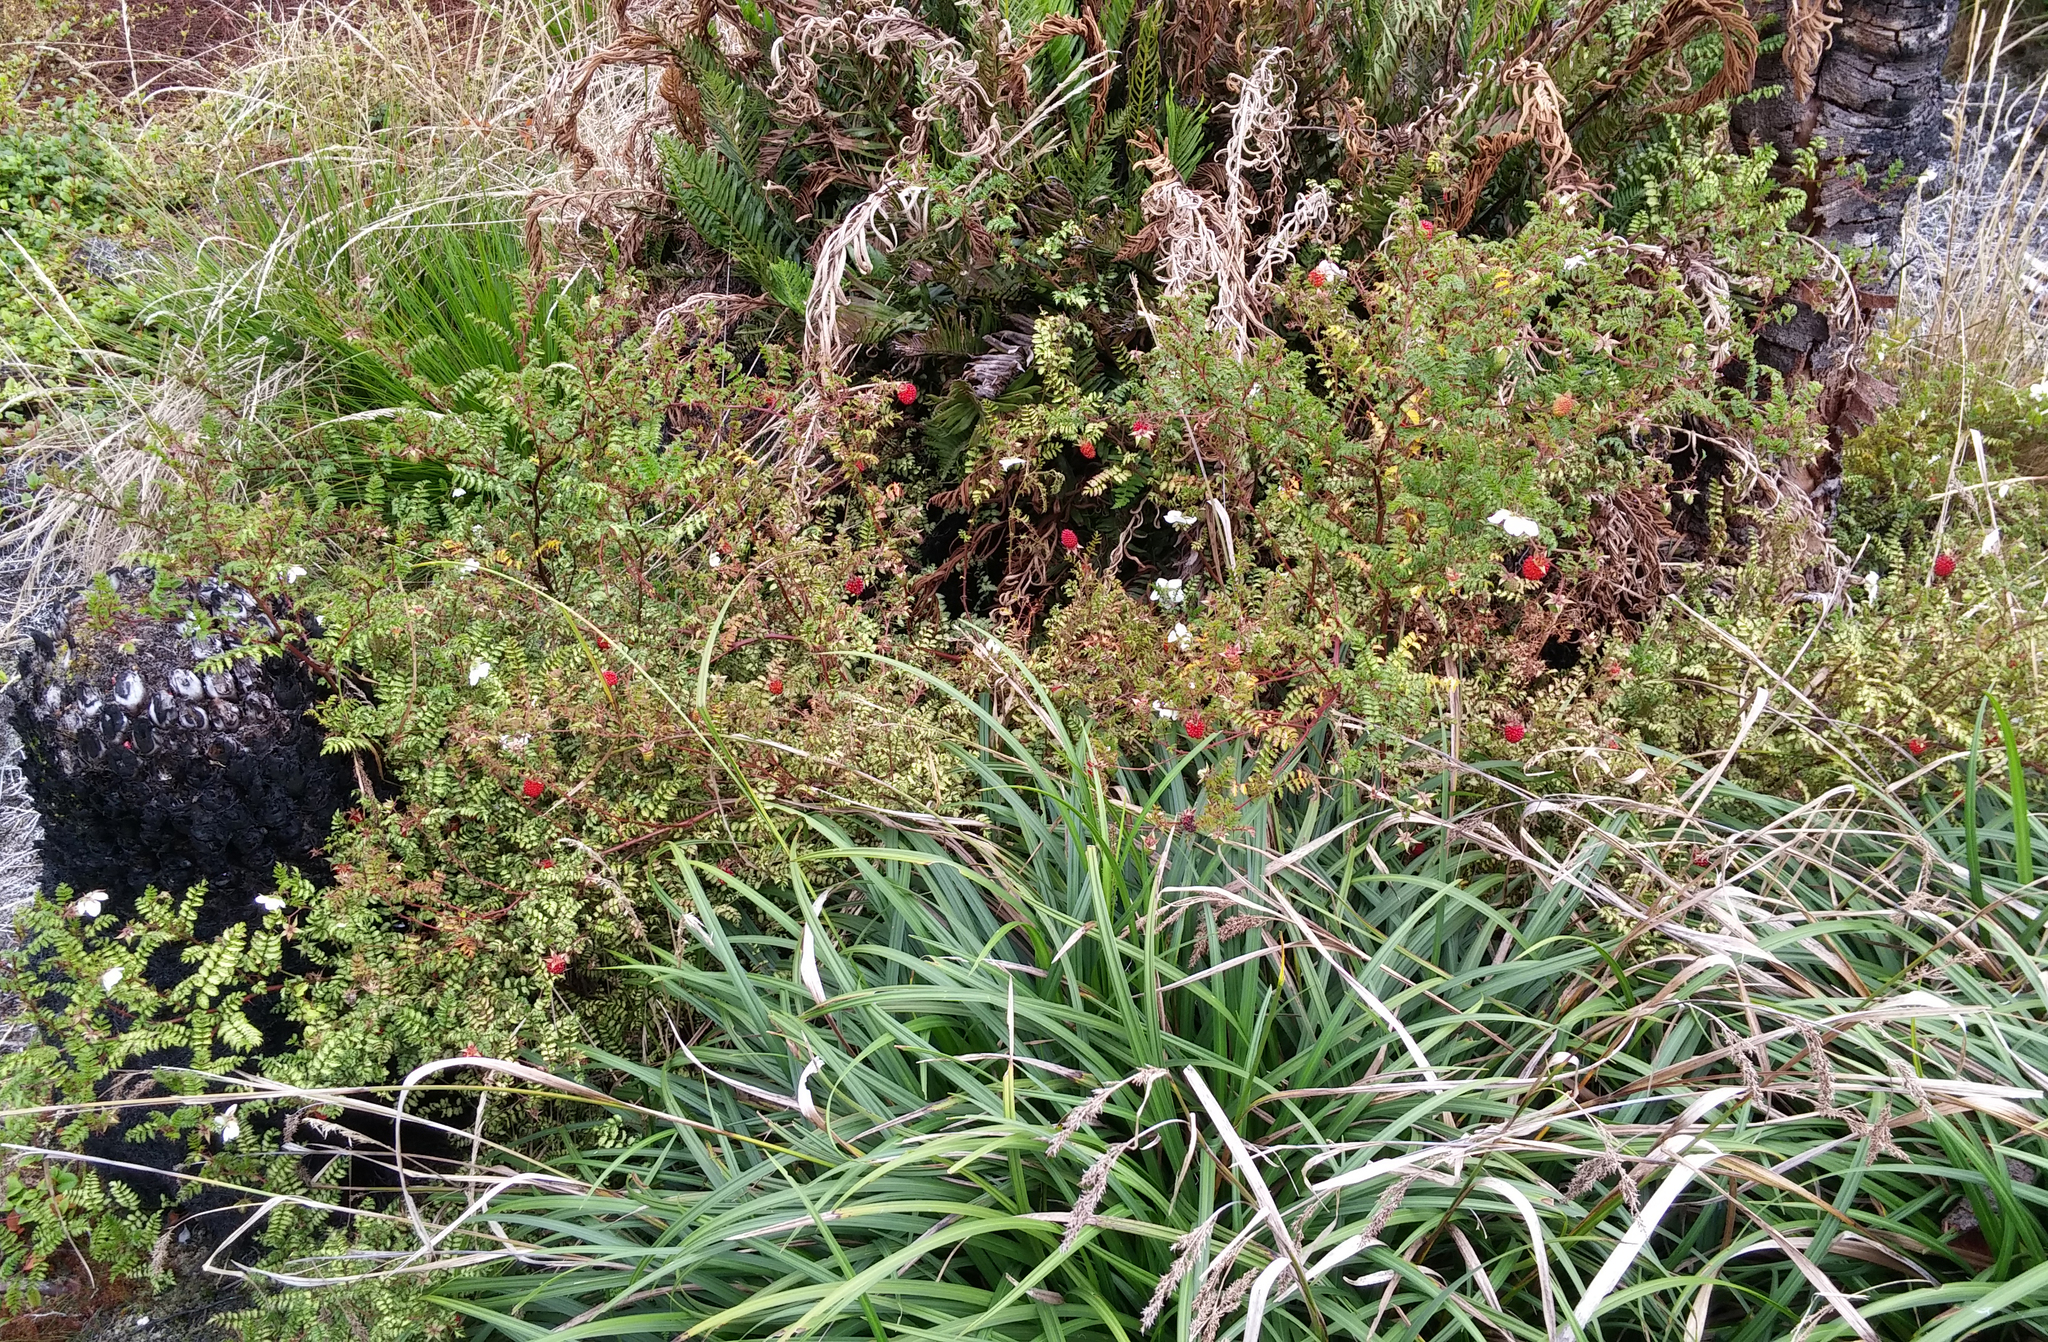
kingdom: Plantae
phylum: Tracheophyta
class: Magnoliopsida
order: Rosales
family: Rosaceae
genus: Rubus
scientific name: Rubus papuanus
